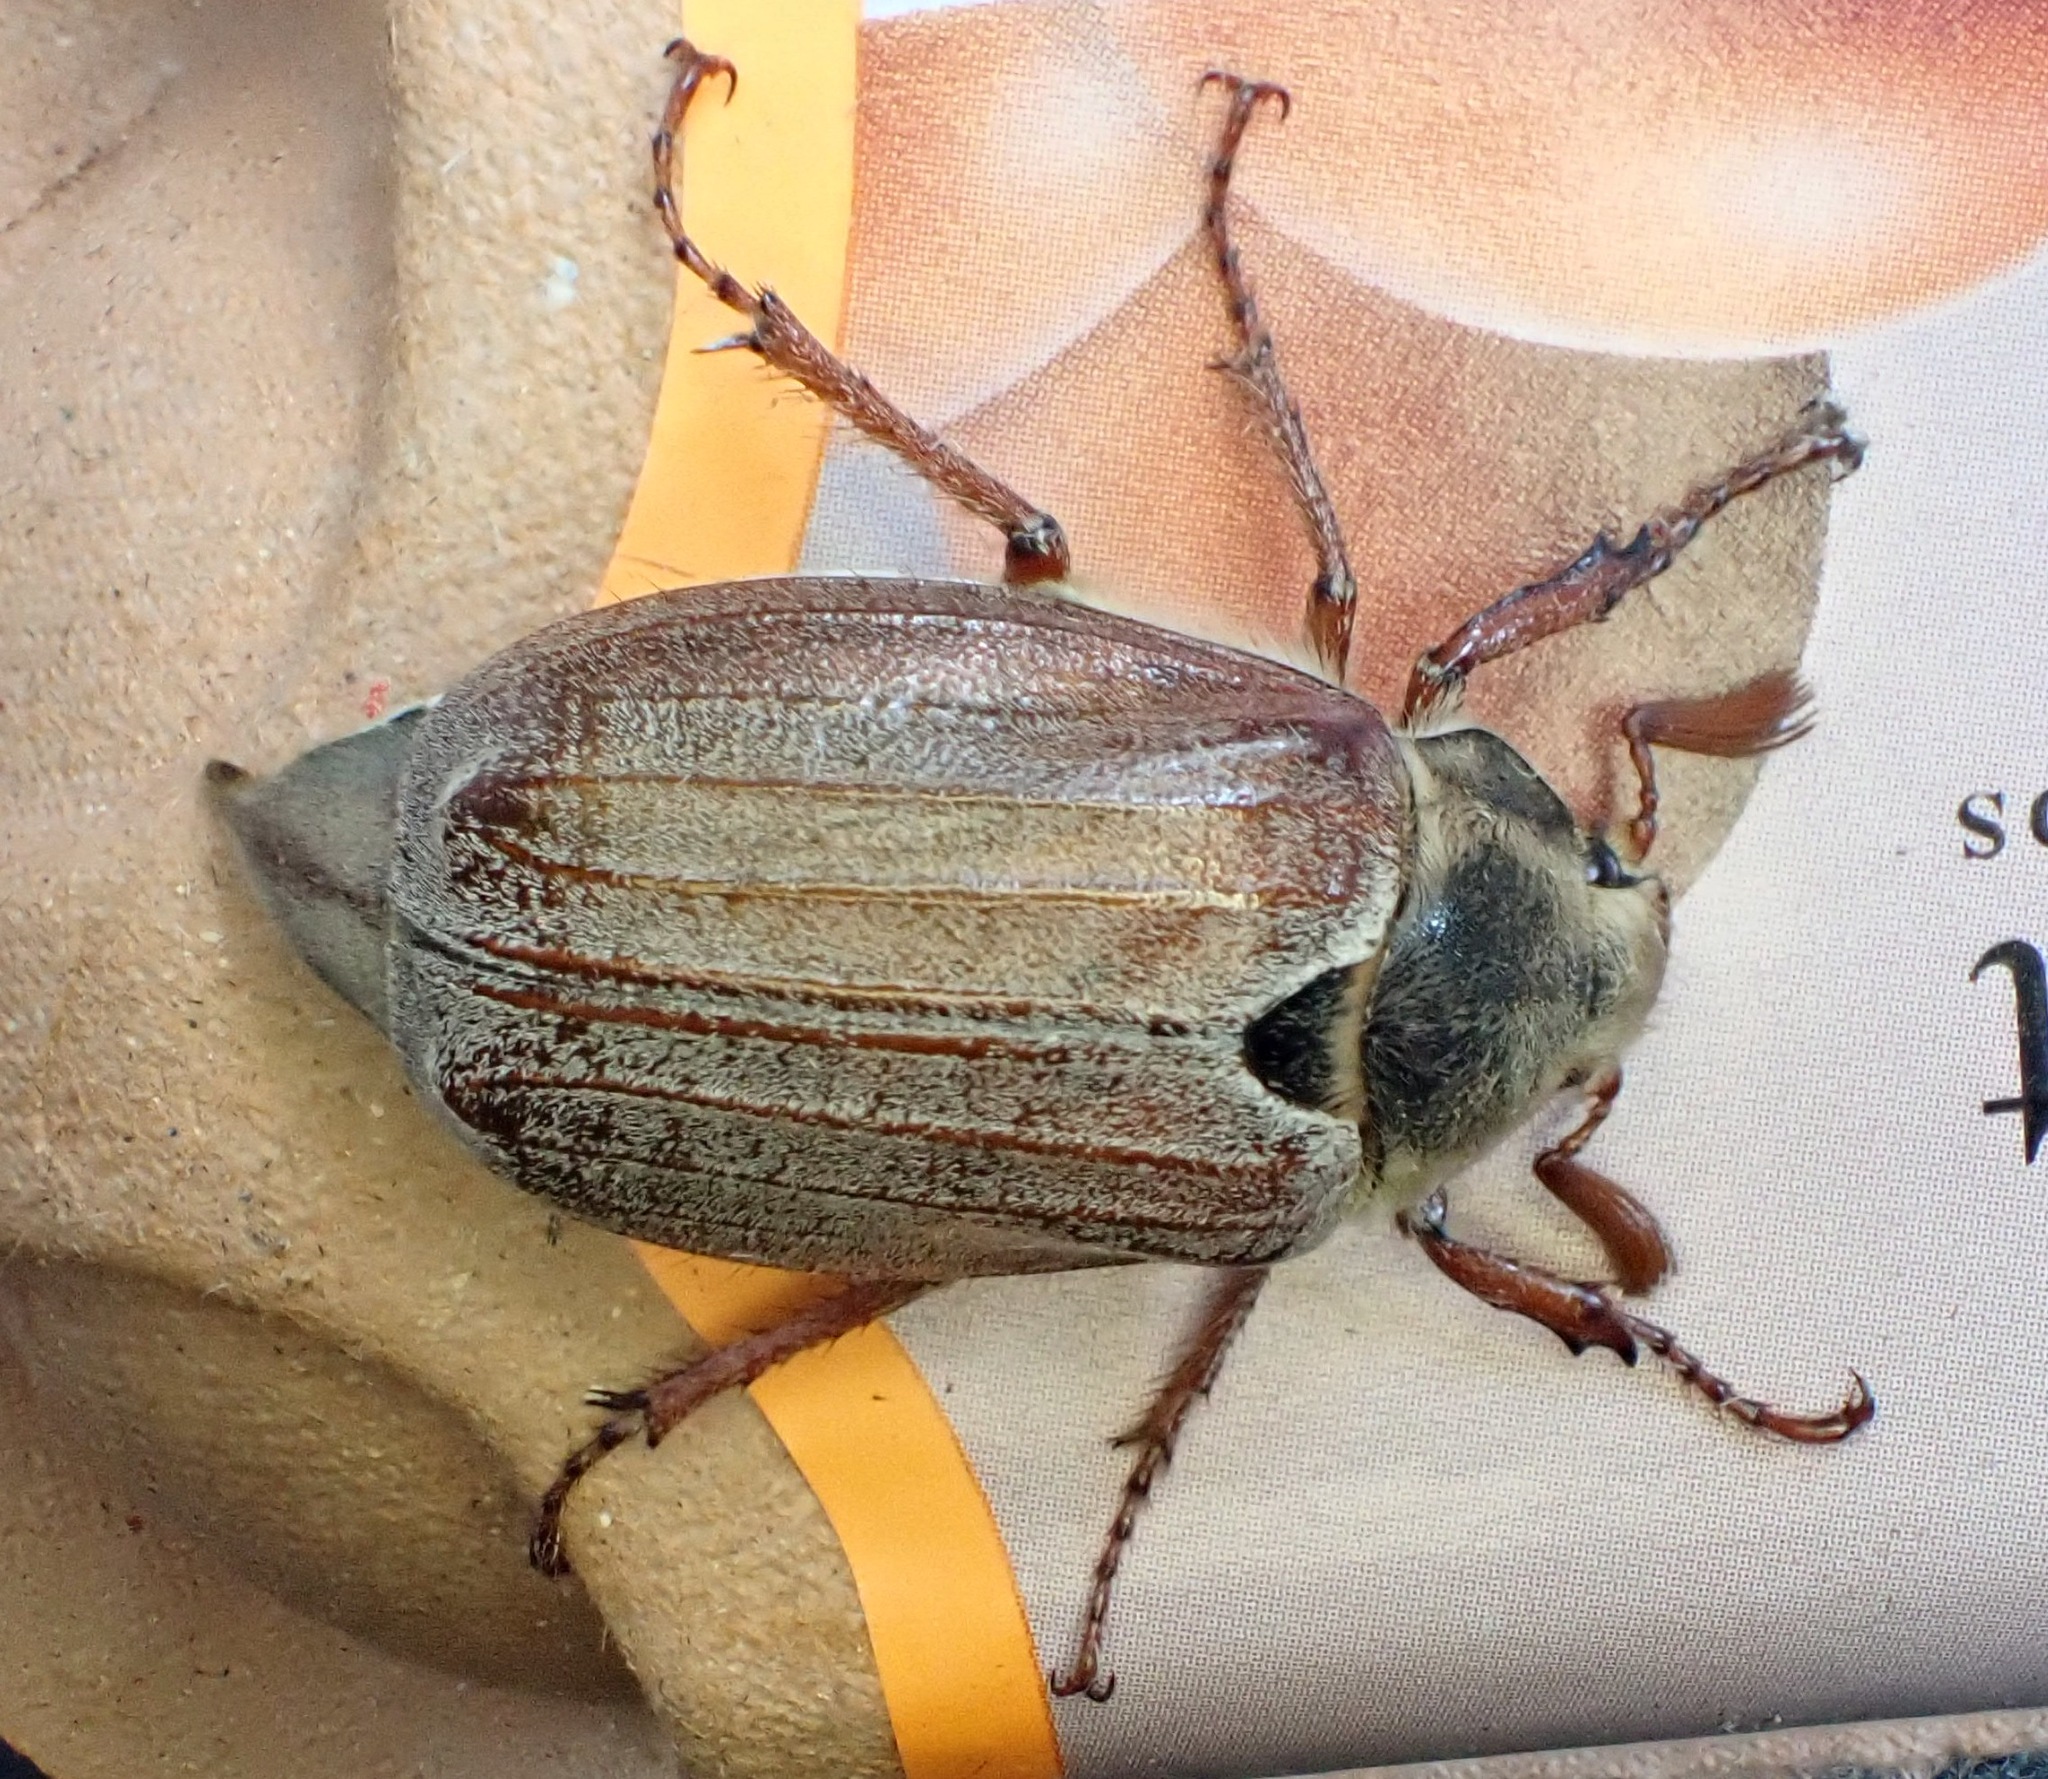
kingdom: Animalia
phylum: Arthropoda
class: Insecta
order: Coleoptera
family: Scarabaeidae
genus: Melolontha
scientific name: Melolontha melolontha
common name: Cockchafer maybeetle
